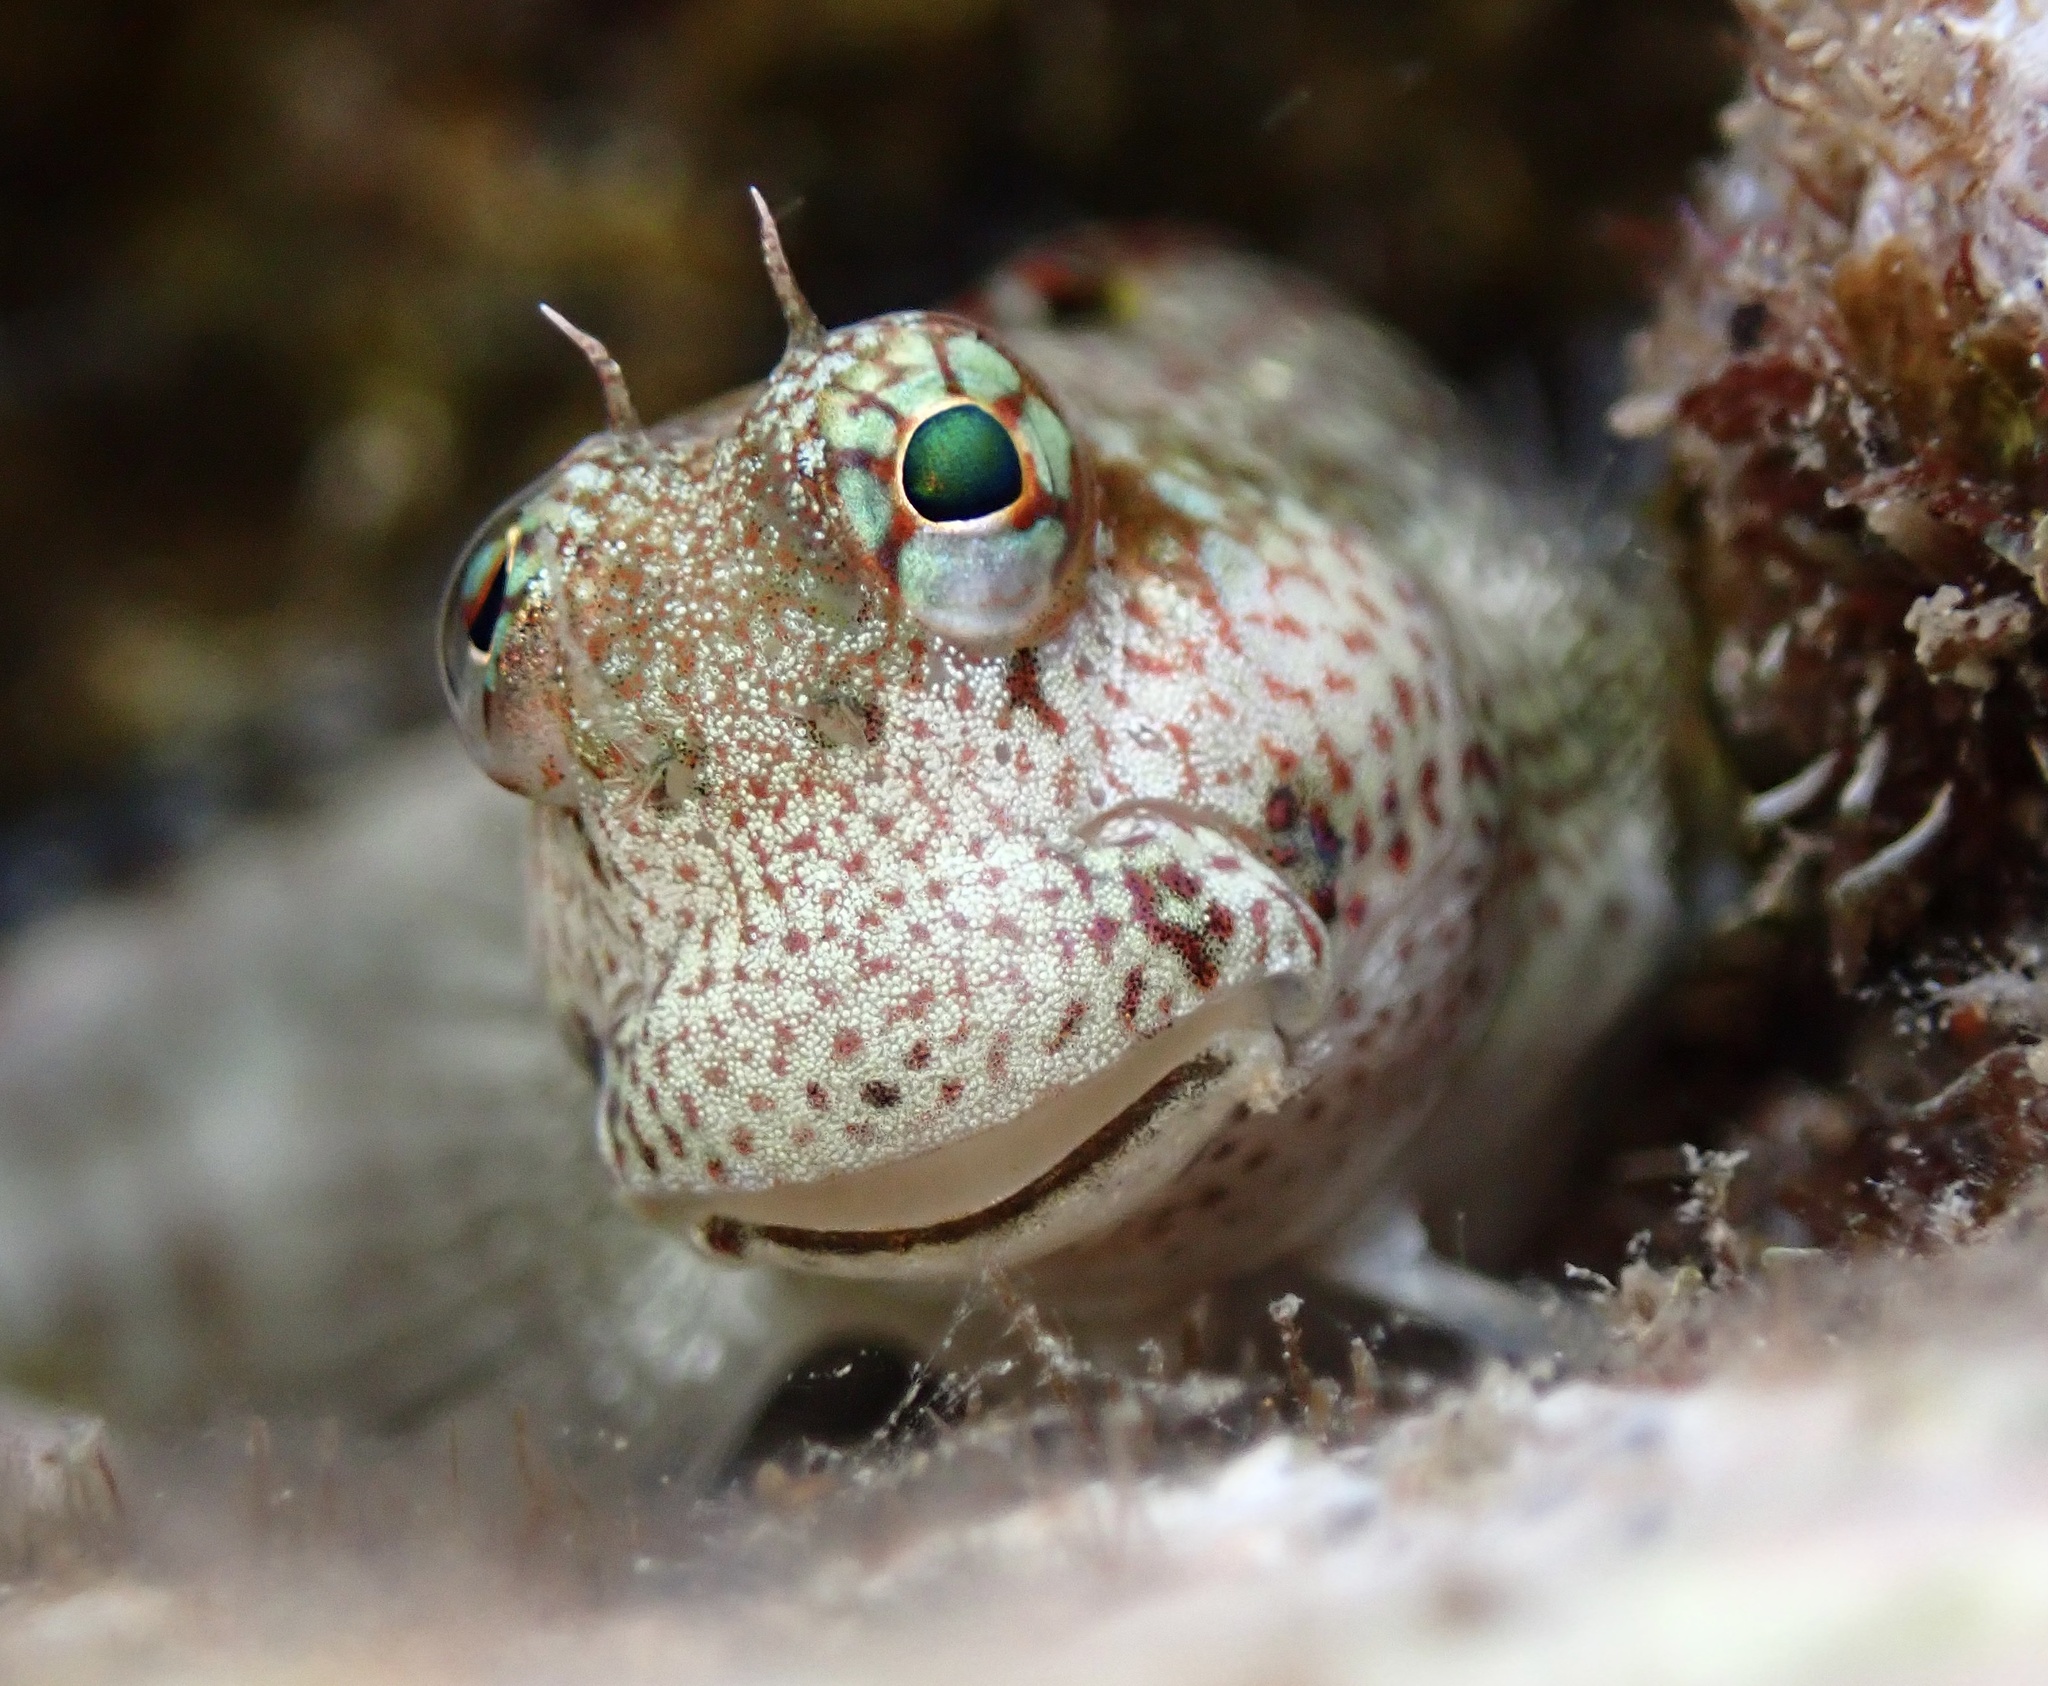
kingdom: Animalia
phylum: Chordata
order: Perciformes
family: Blenniidae
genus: Blenniella
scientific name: Blenniella gibbifrons
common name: Picture rockskipper
